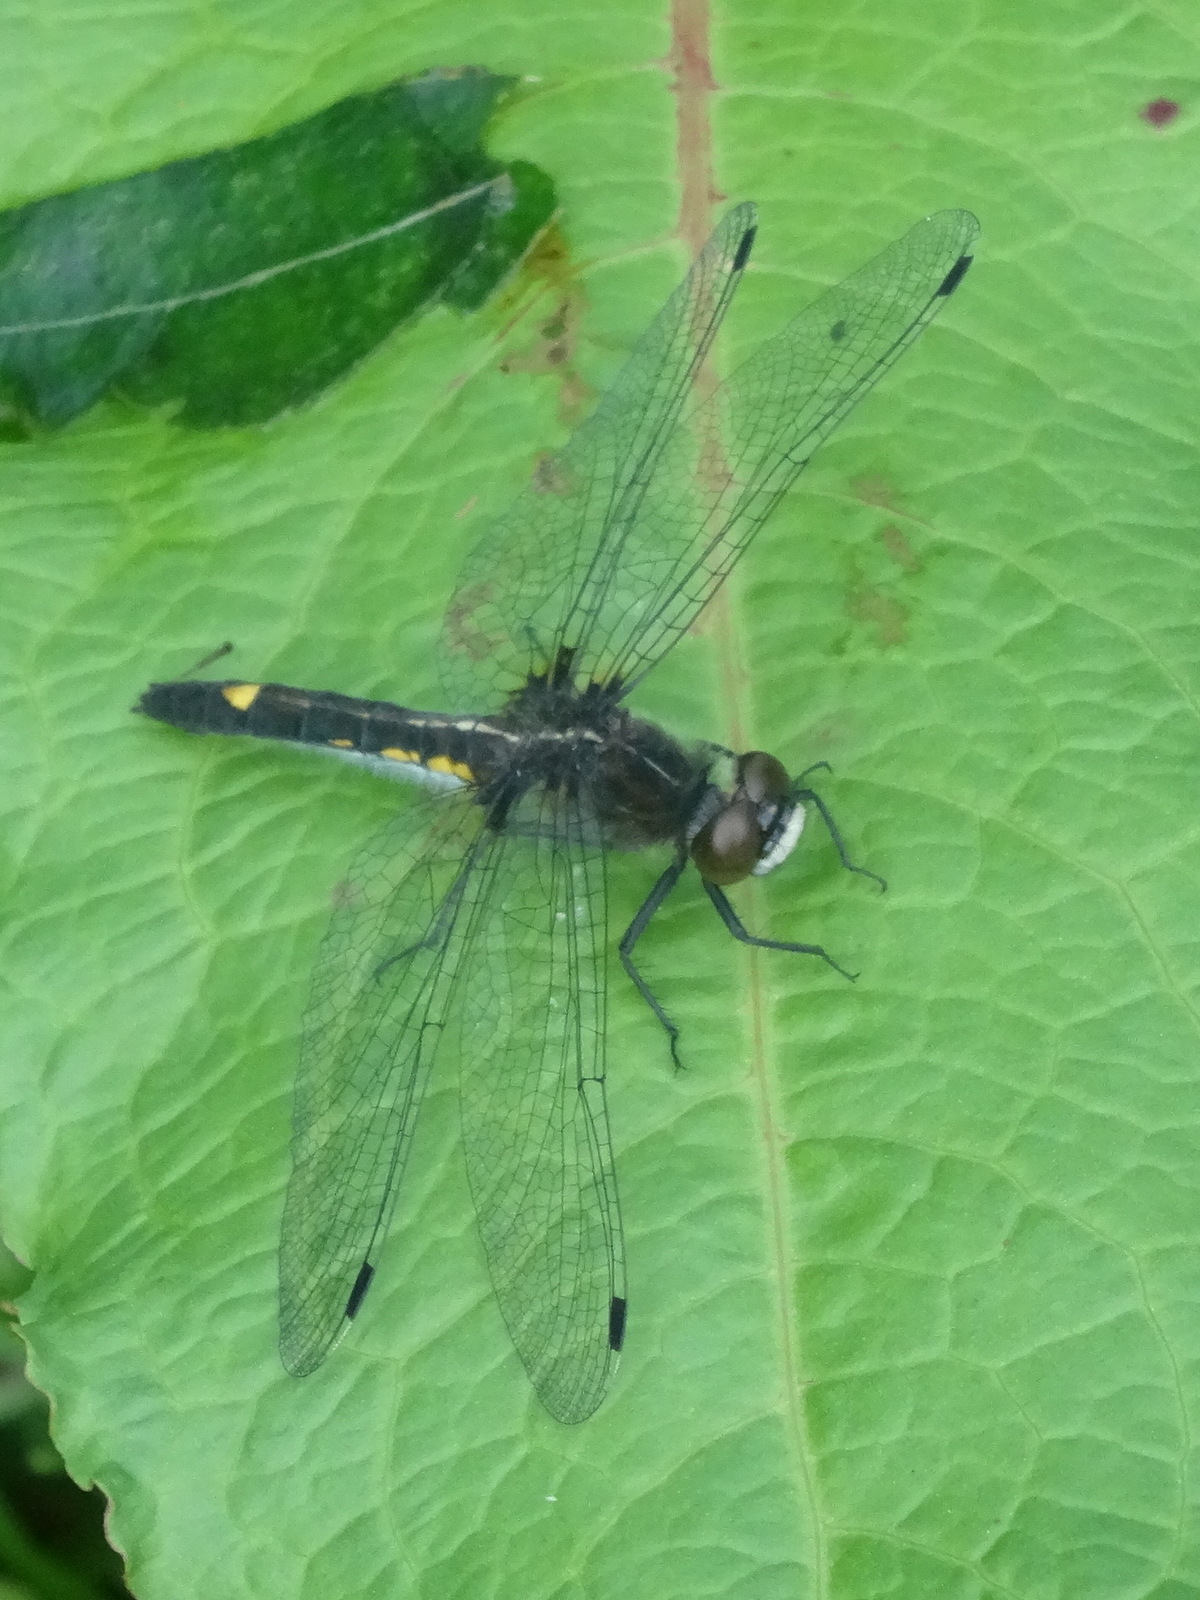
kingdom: Animalia
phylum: Arthropoda
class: Insecta
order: Odonata
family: Libellulidae
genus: Leucorrhinia
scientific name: Leucorrhinia intacta
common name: Dot-tailed whiteface
